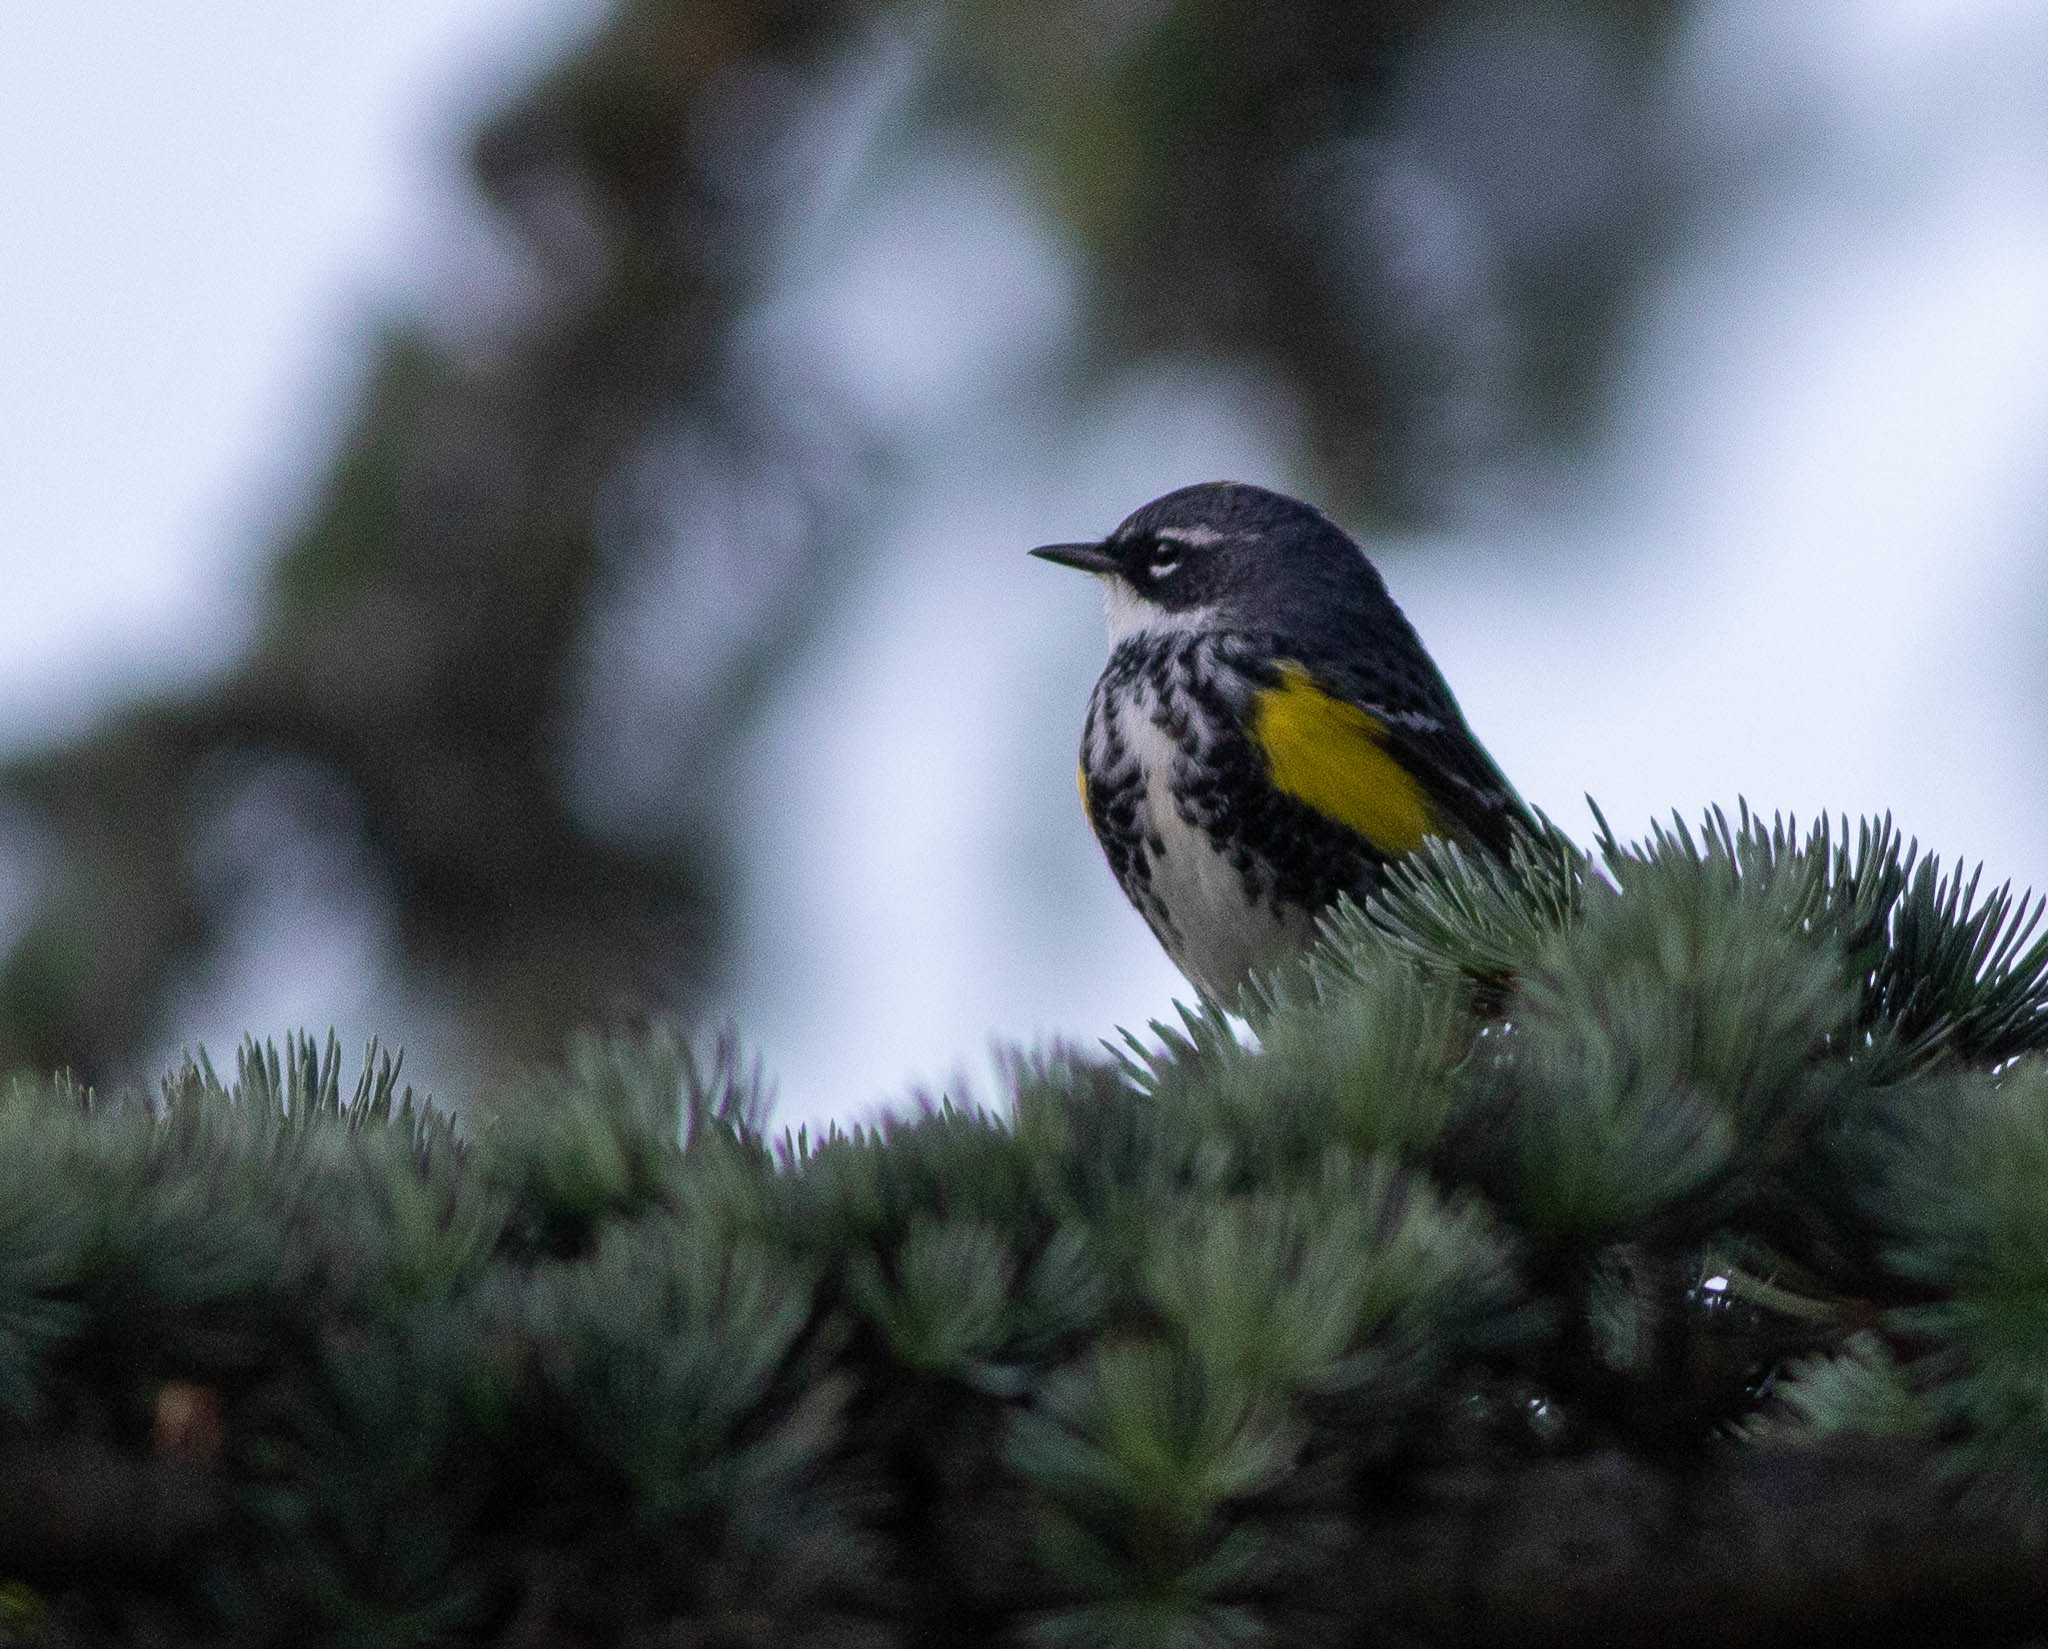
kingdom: Animalia
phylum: Chordata
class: Aves
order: Passeriformes
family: Parulidae
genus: Setophaga
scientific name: Setophaga coronata
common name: Myrtle warbler
